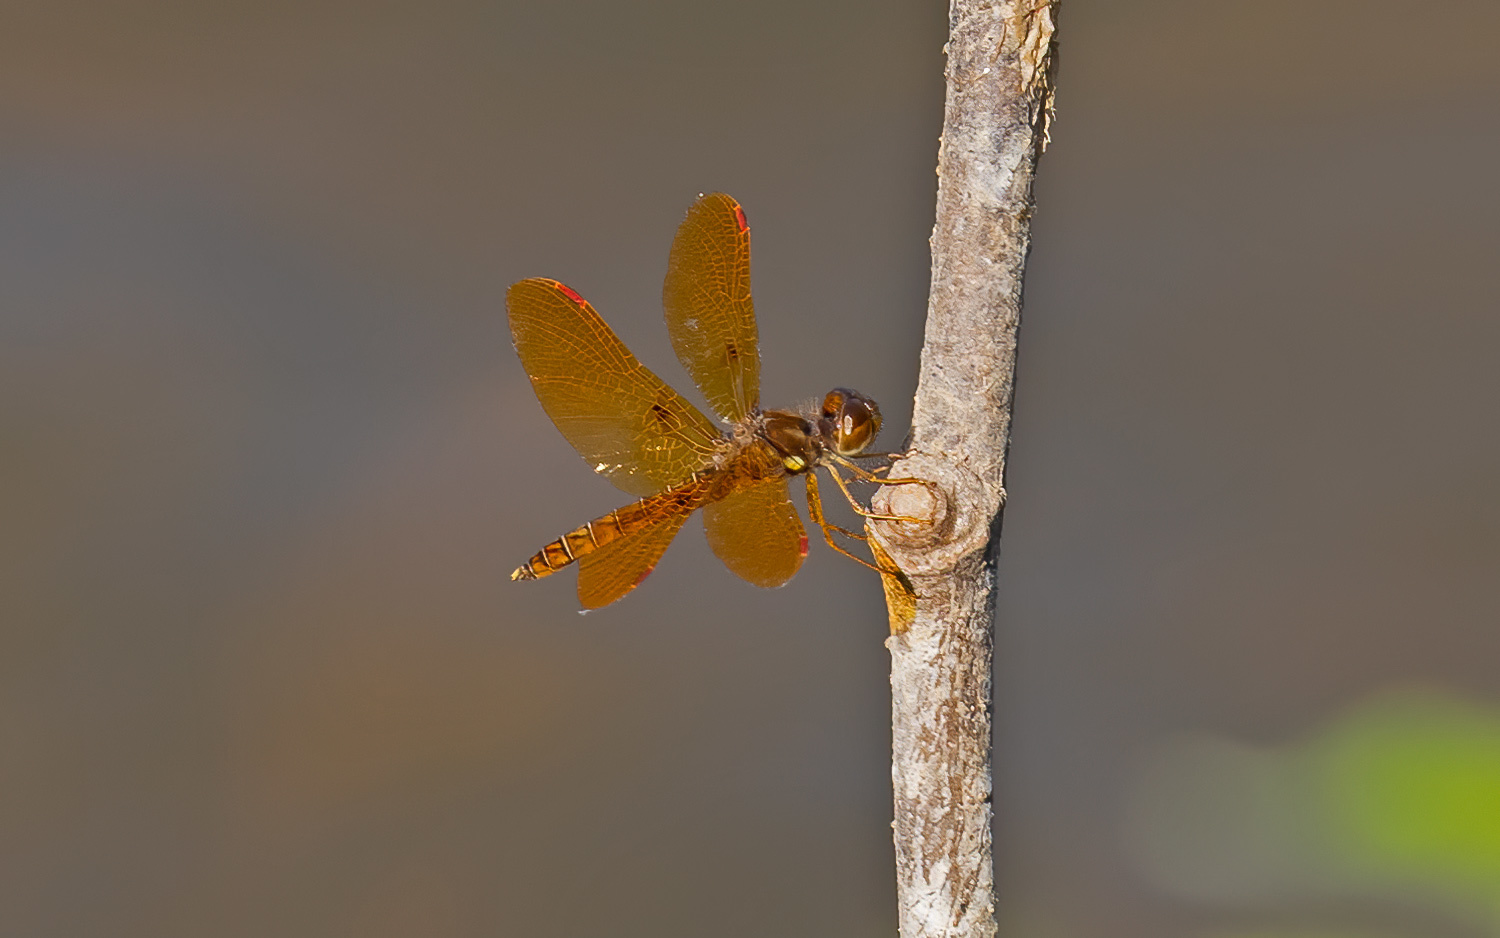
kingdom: Animalia
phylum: Arthropoda
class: Insecta
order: Odonata
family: Libellulidae
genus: Perithemis
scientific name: Perithemis tenera
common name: Eastern amberwing
